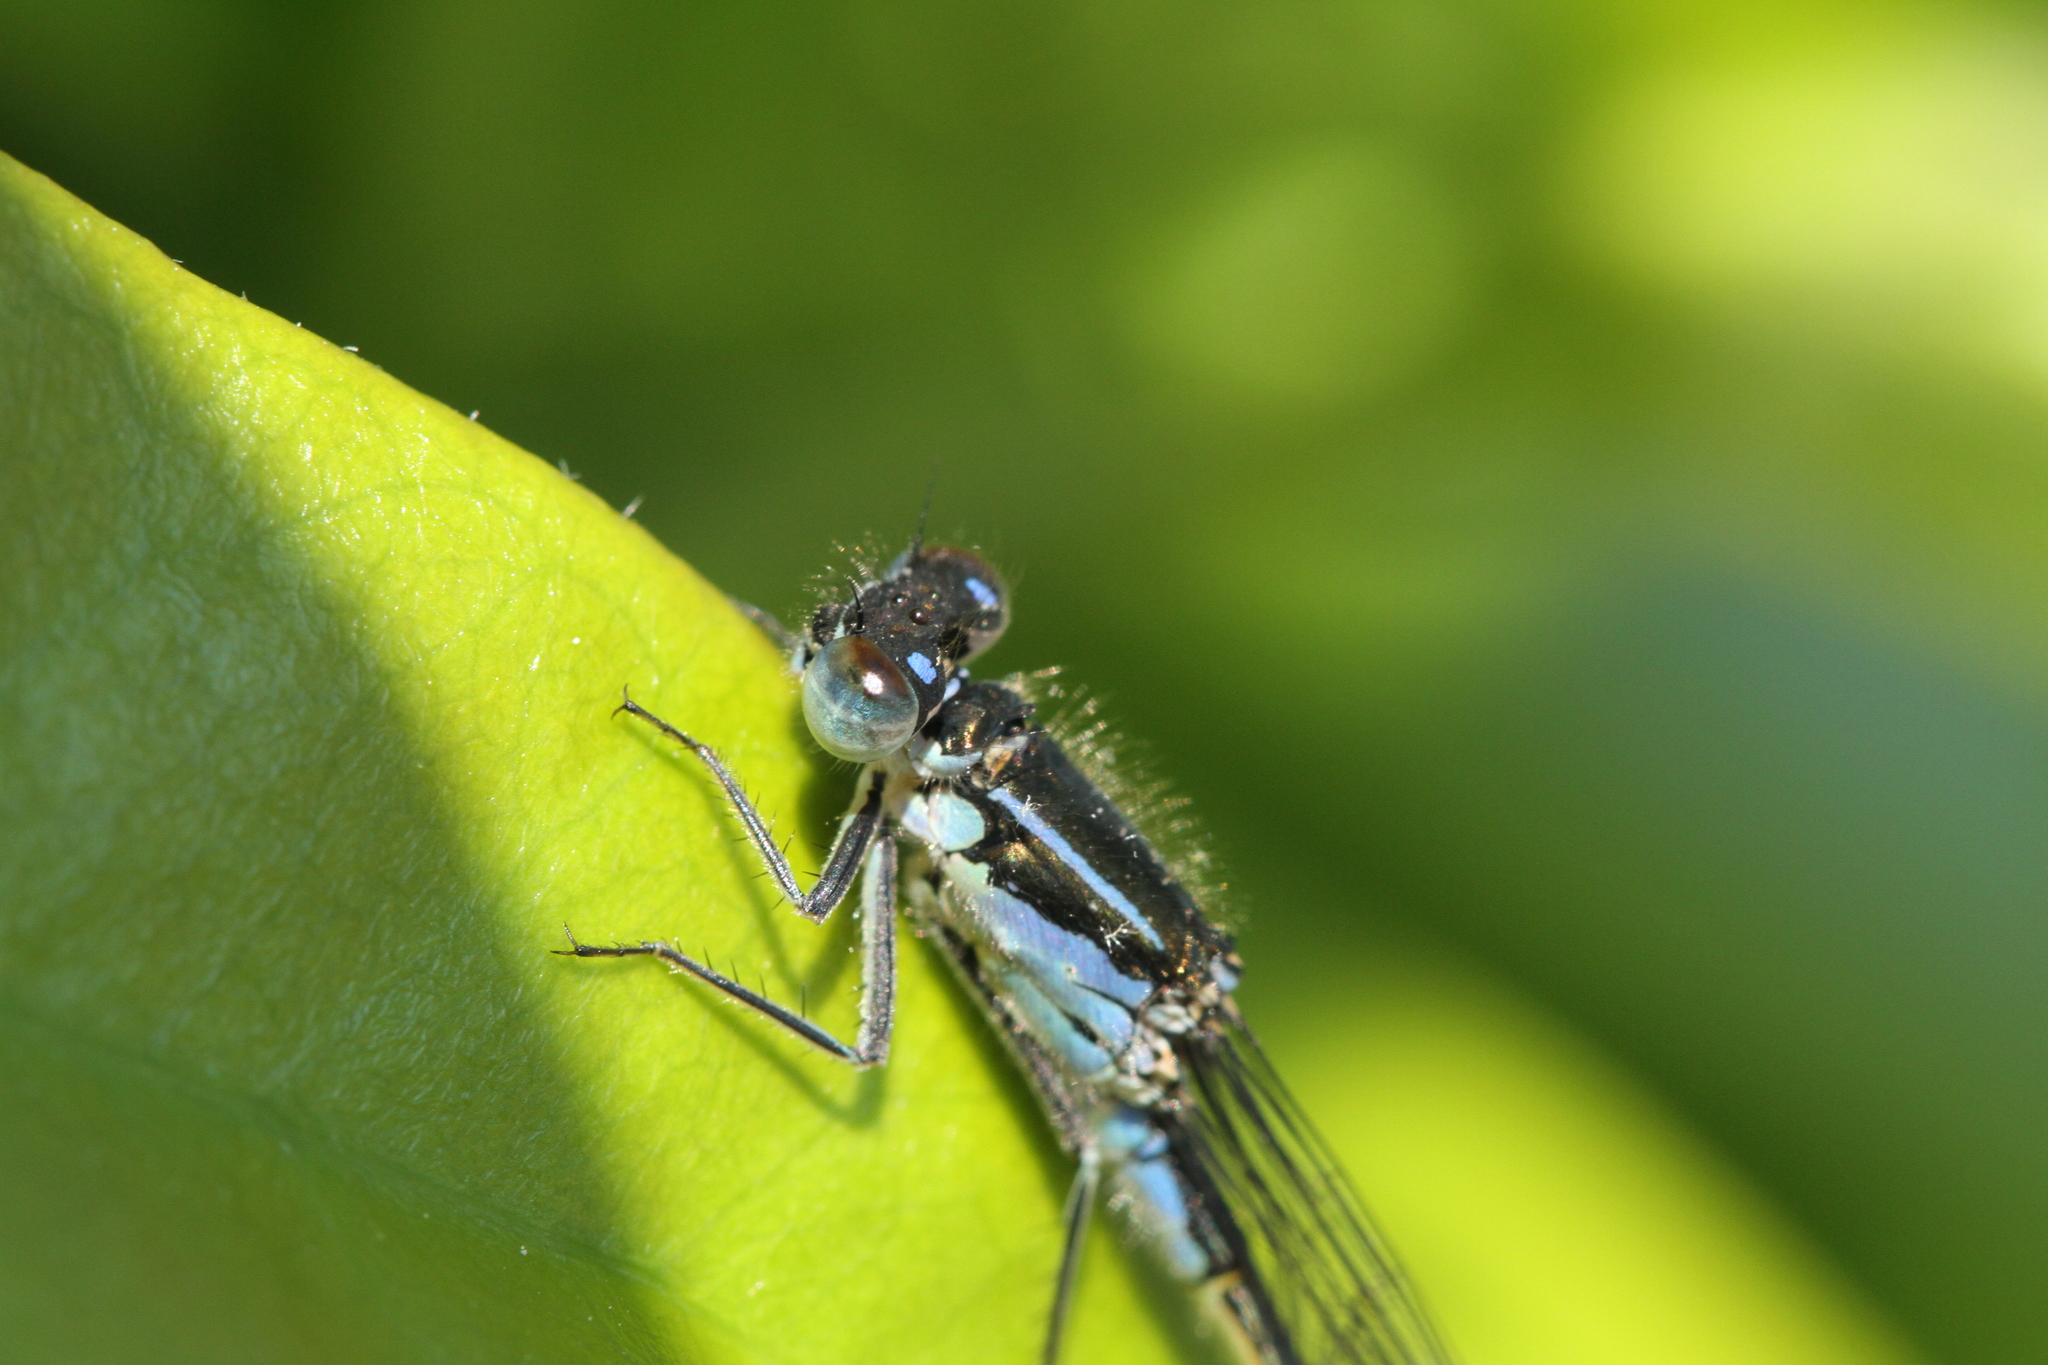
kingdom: Animalia
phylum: Arthropoda
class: Insecta
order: Odonata
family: Coenagrionidae
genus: Ischnura
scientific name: Ischnura elegans
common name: Blue-tailed damselfly
